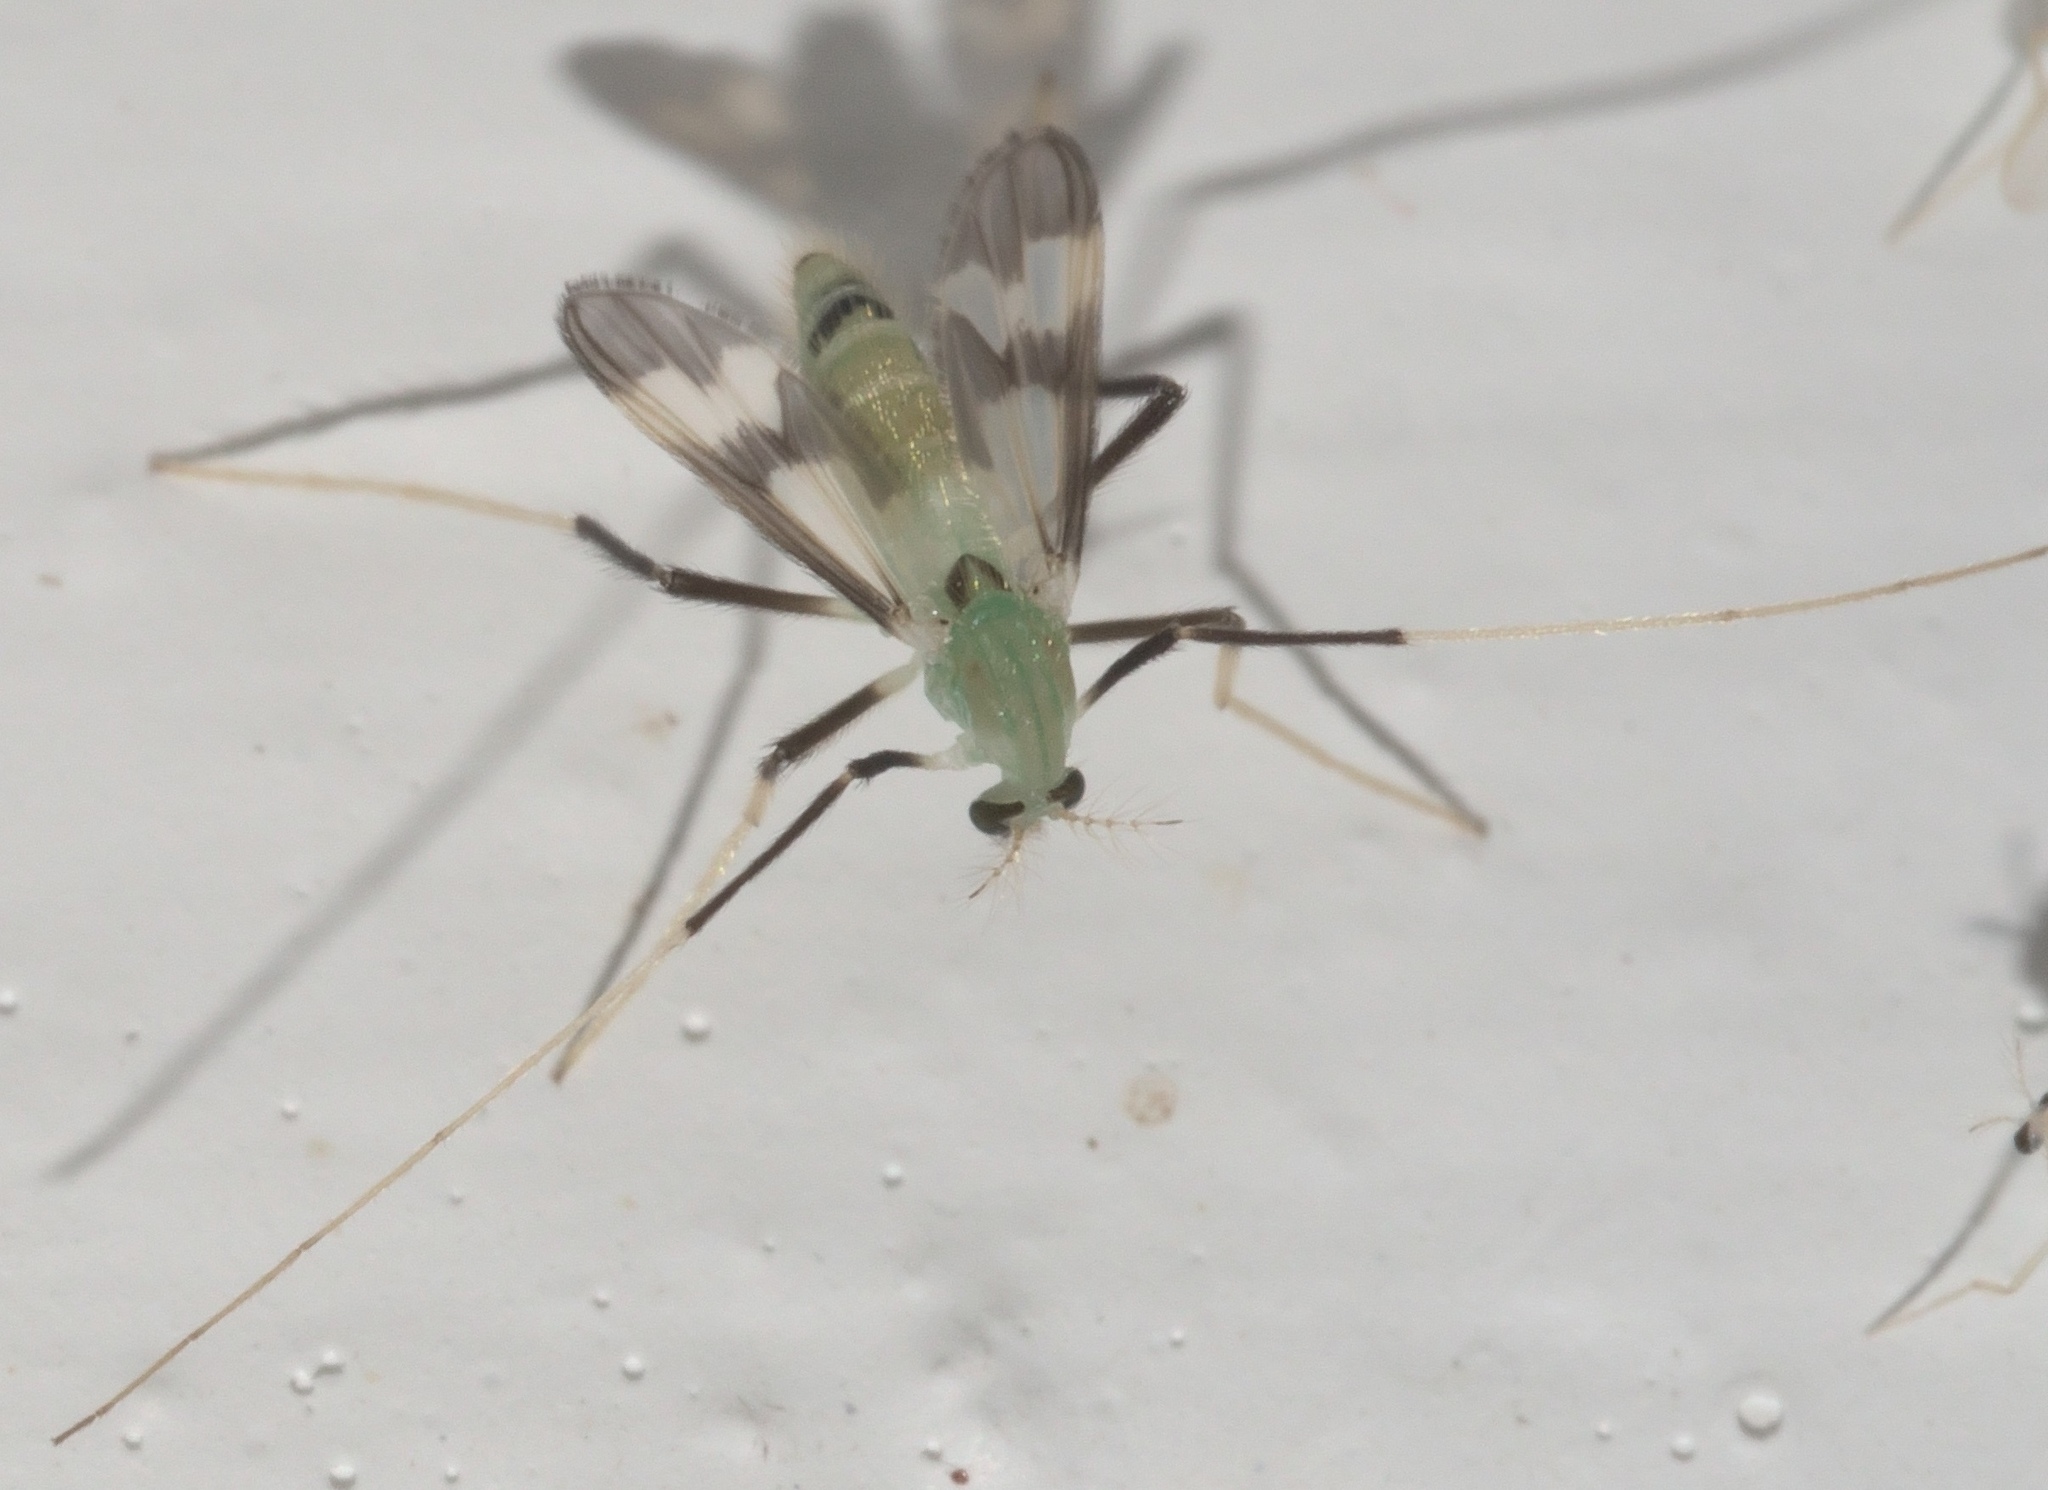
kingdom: Animalia
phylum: Arthropoda
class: Insecta
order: Diptera
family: Chironomidae
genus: Stenochironomus
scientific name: Stenochironomus hilaris
